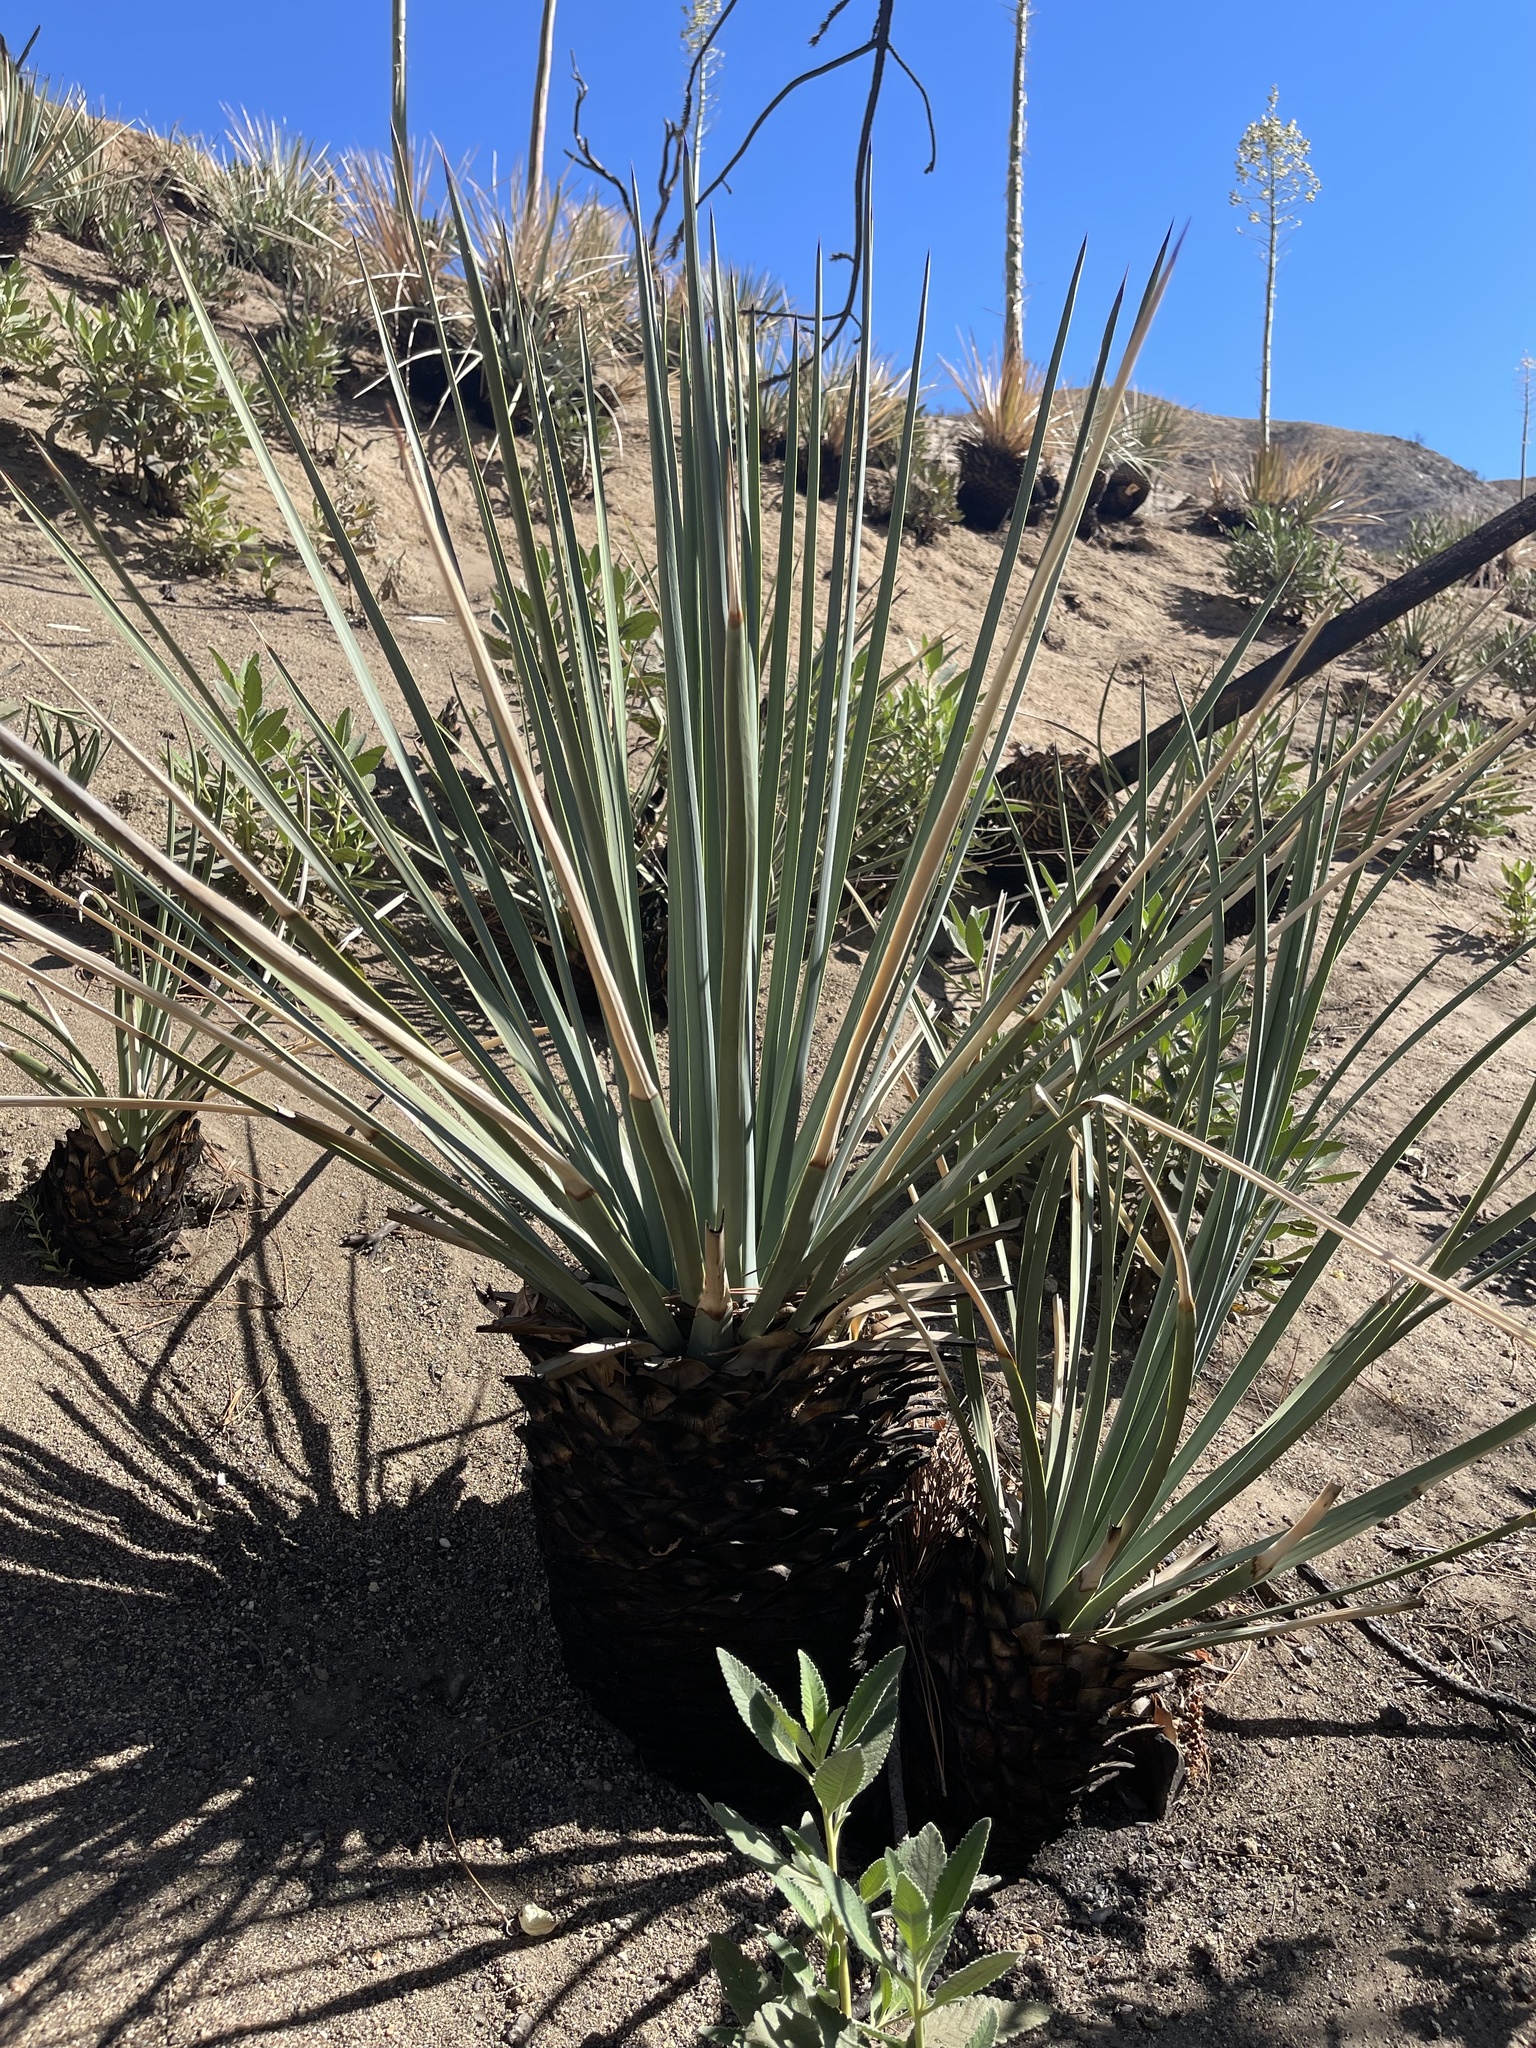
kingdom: Plantae
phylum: Tracheophyta
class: Liliopsida
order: Asparagales
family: Asparagaceae
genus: Hesperoyucca
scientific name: Hesperoyucca whipplei
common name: Our lord's-candle
